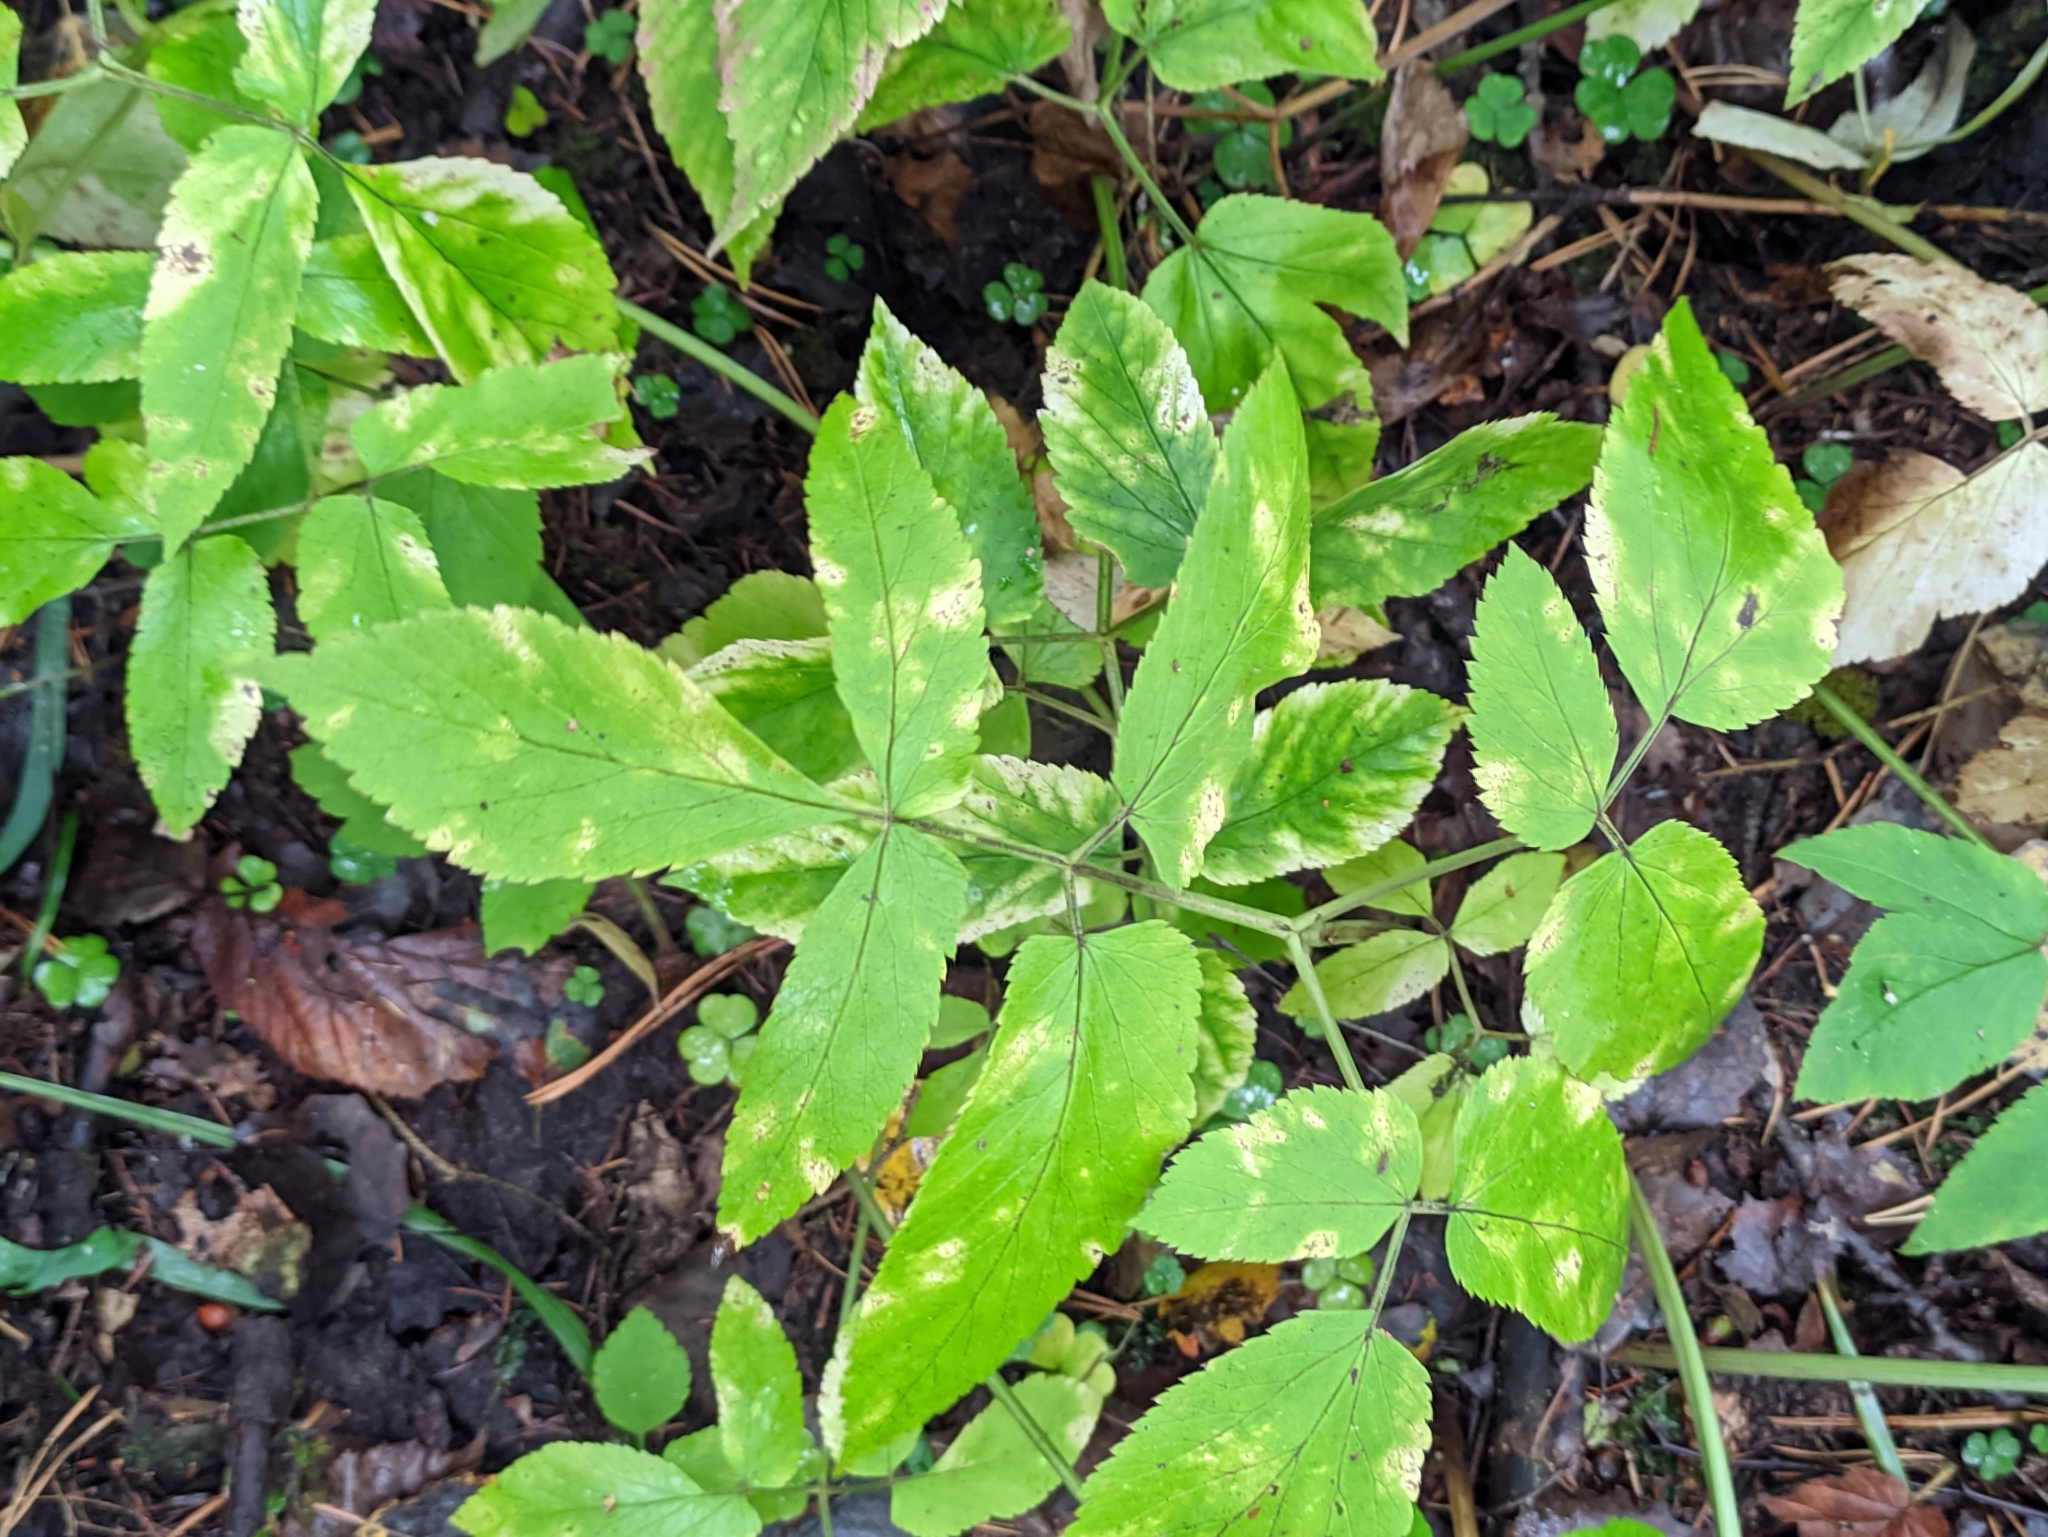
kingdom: Plantae
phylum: Tracheophyta
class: Magnoliopsida
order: Apiales
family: Apiaceae
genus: Aegopodium
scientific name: Aegopodium podagraria
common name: Ground-elder
